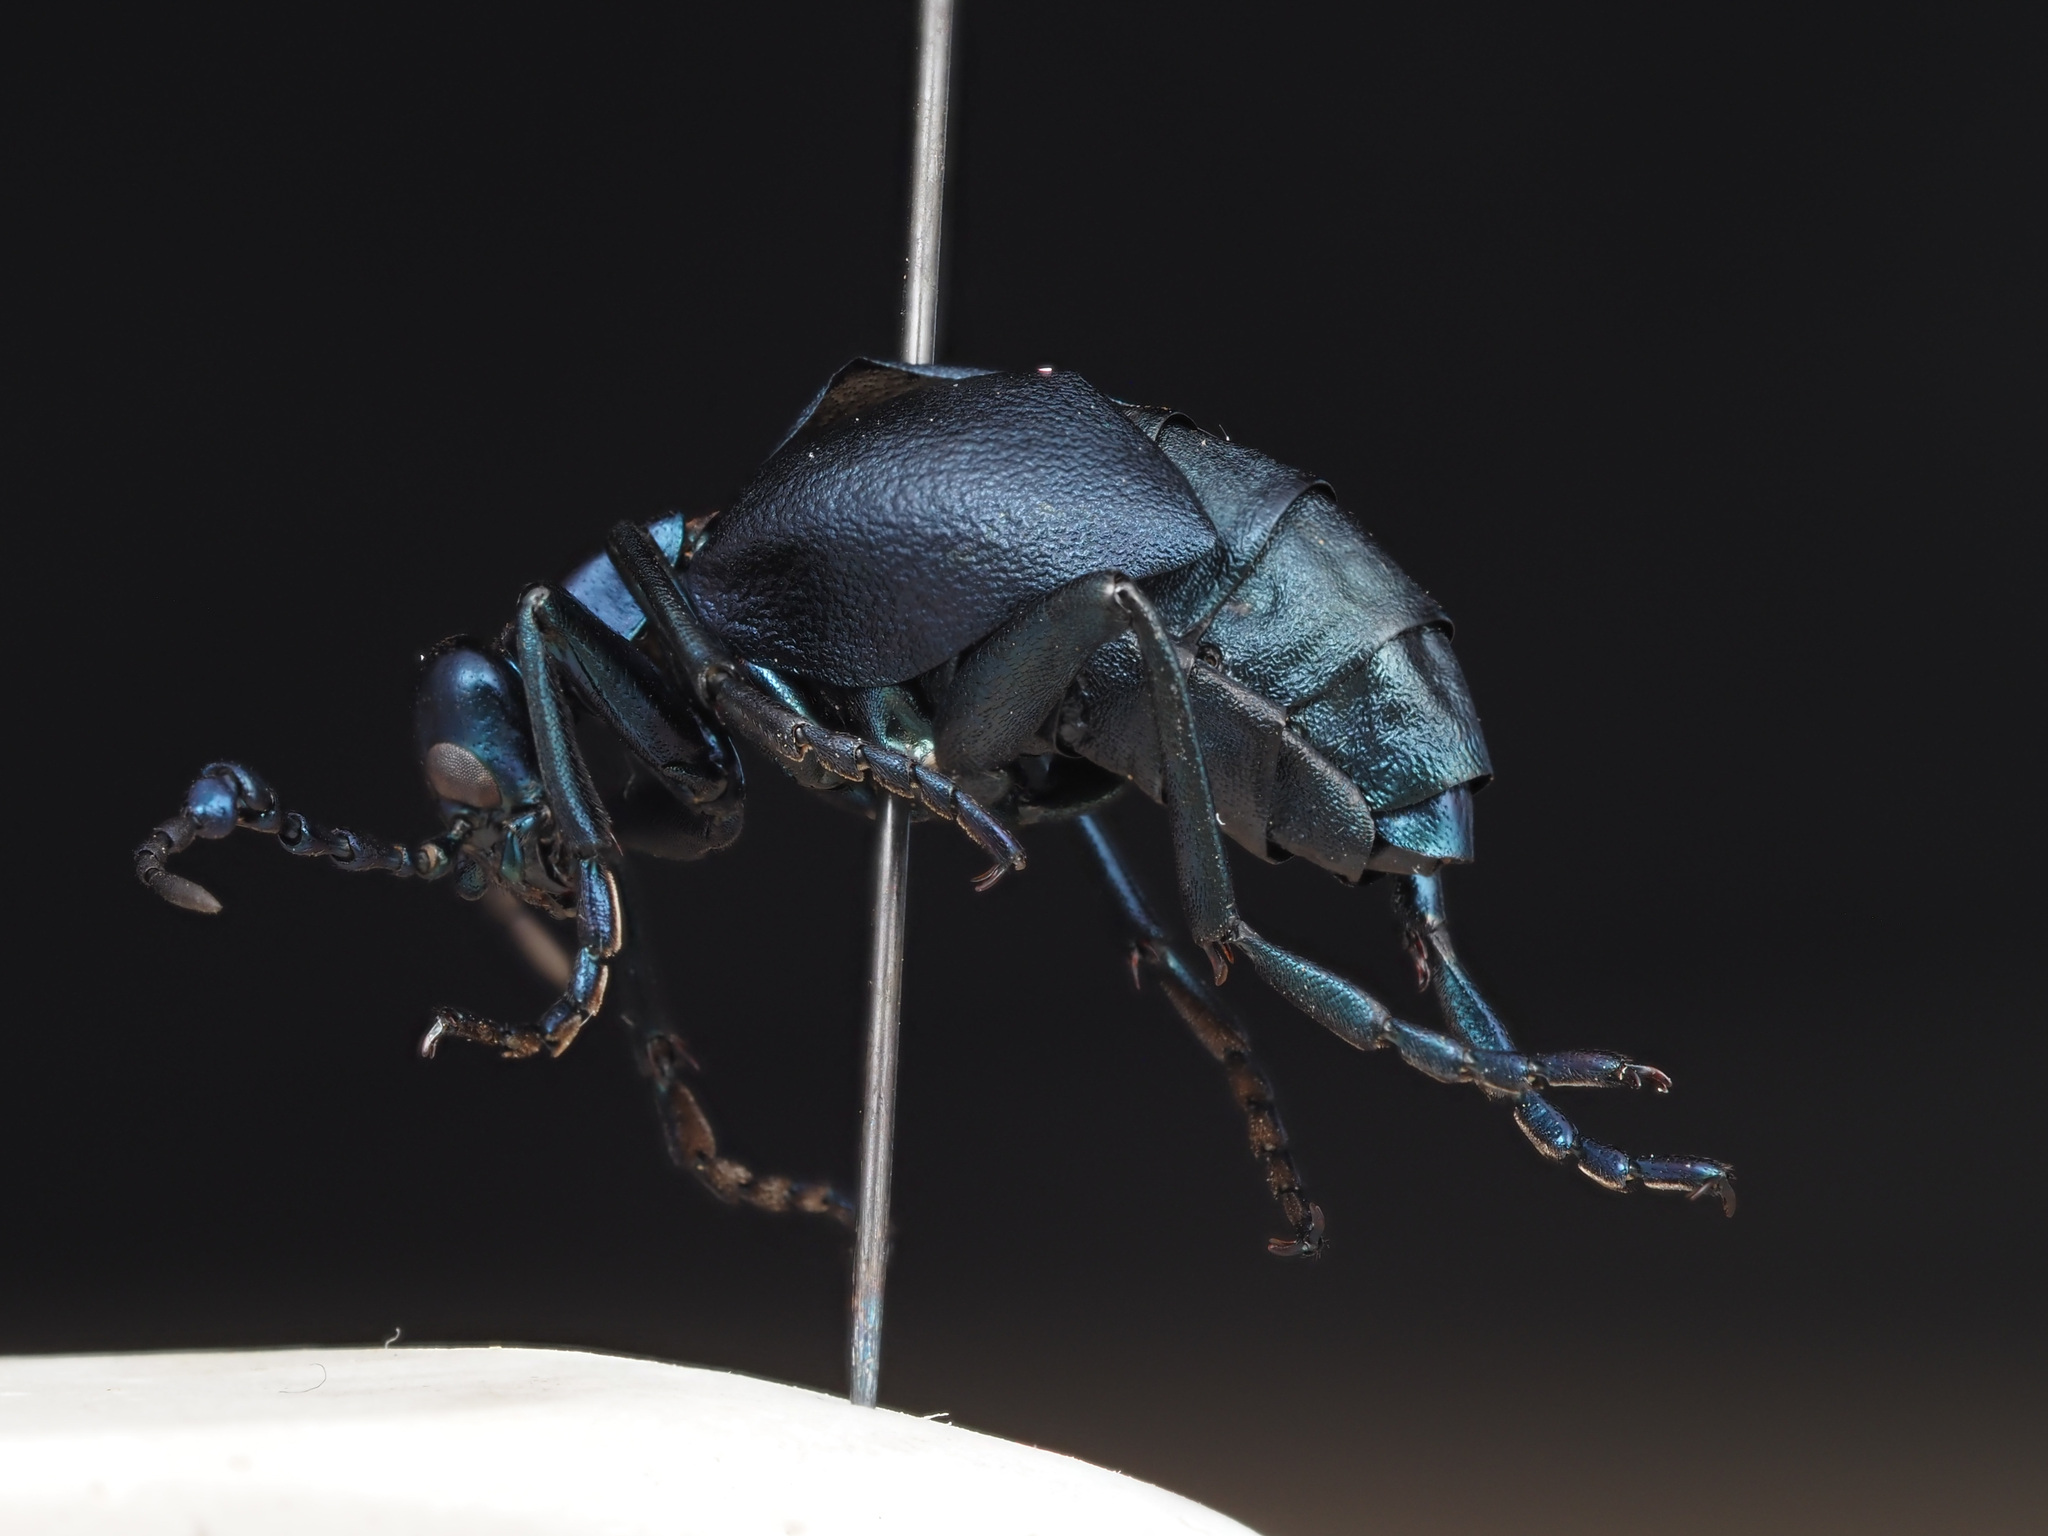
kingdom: Animalia
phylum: Arthropoda
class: Insecta
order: Coleoptera
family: Meloidae
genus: Meloe
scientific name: Meloe impressus
